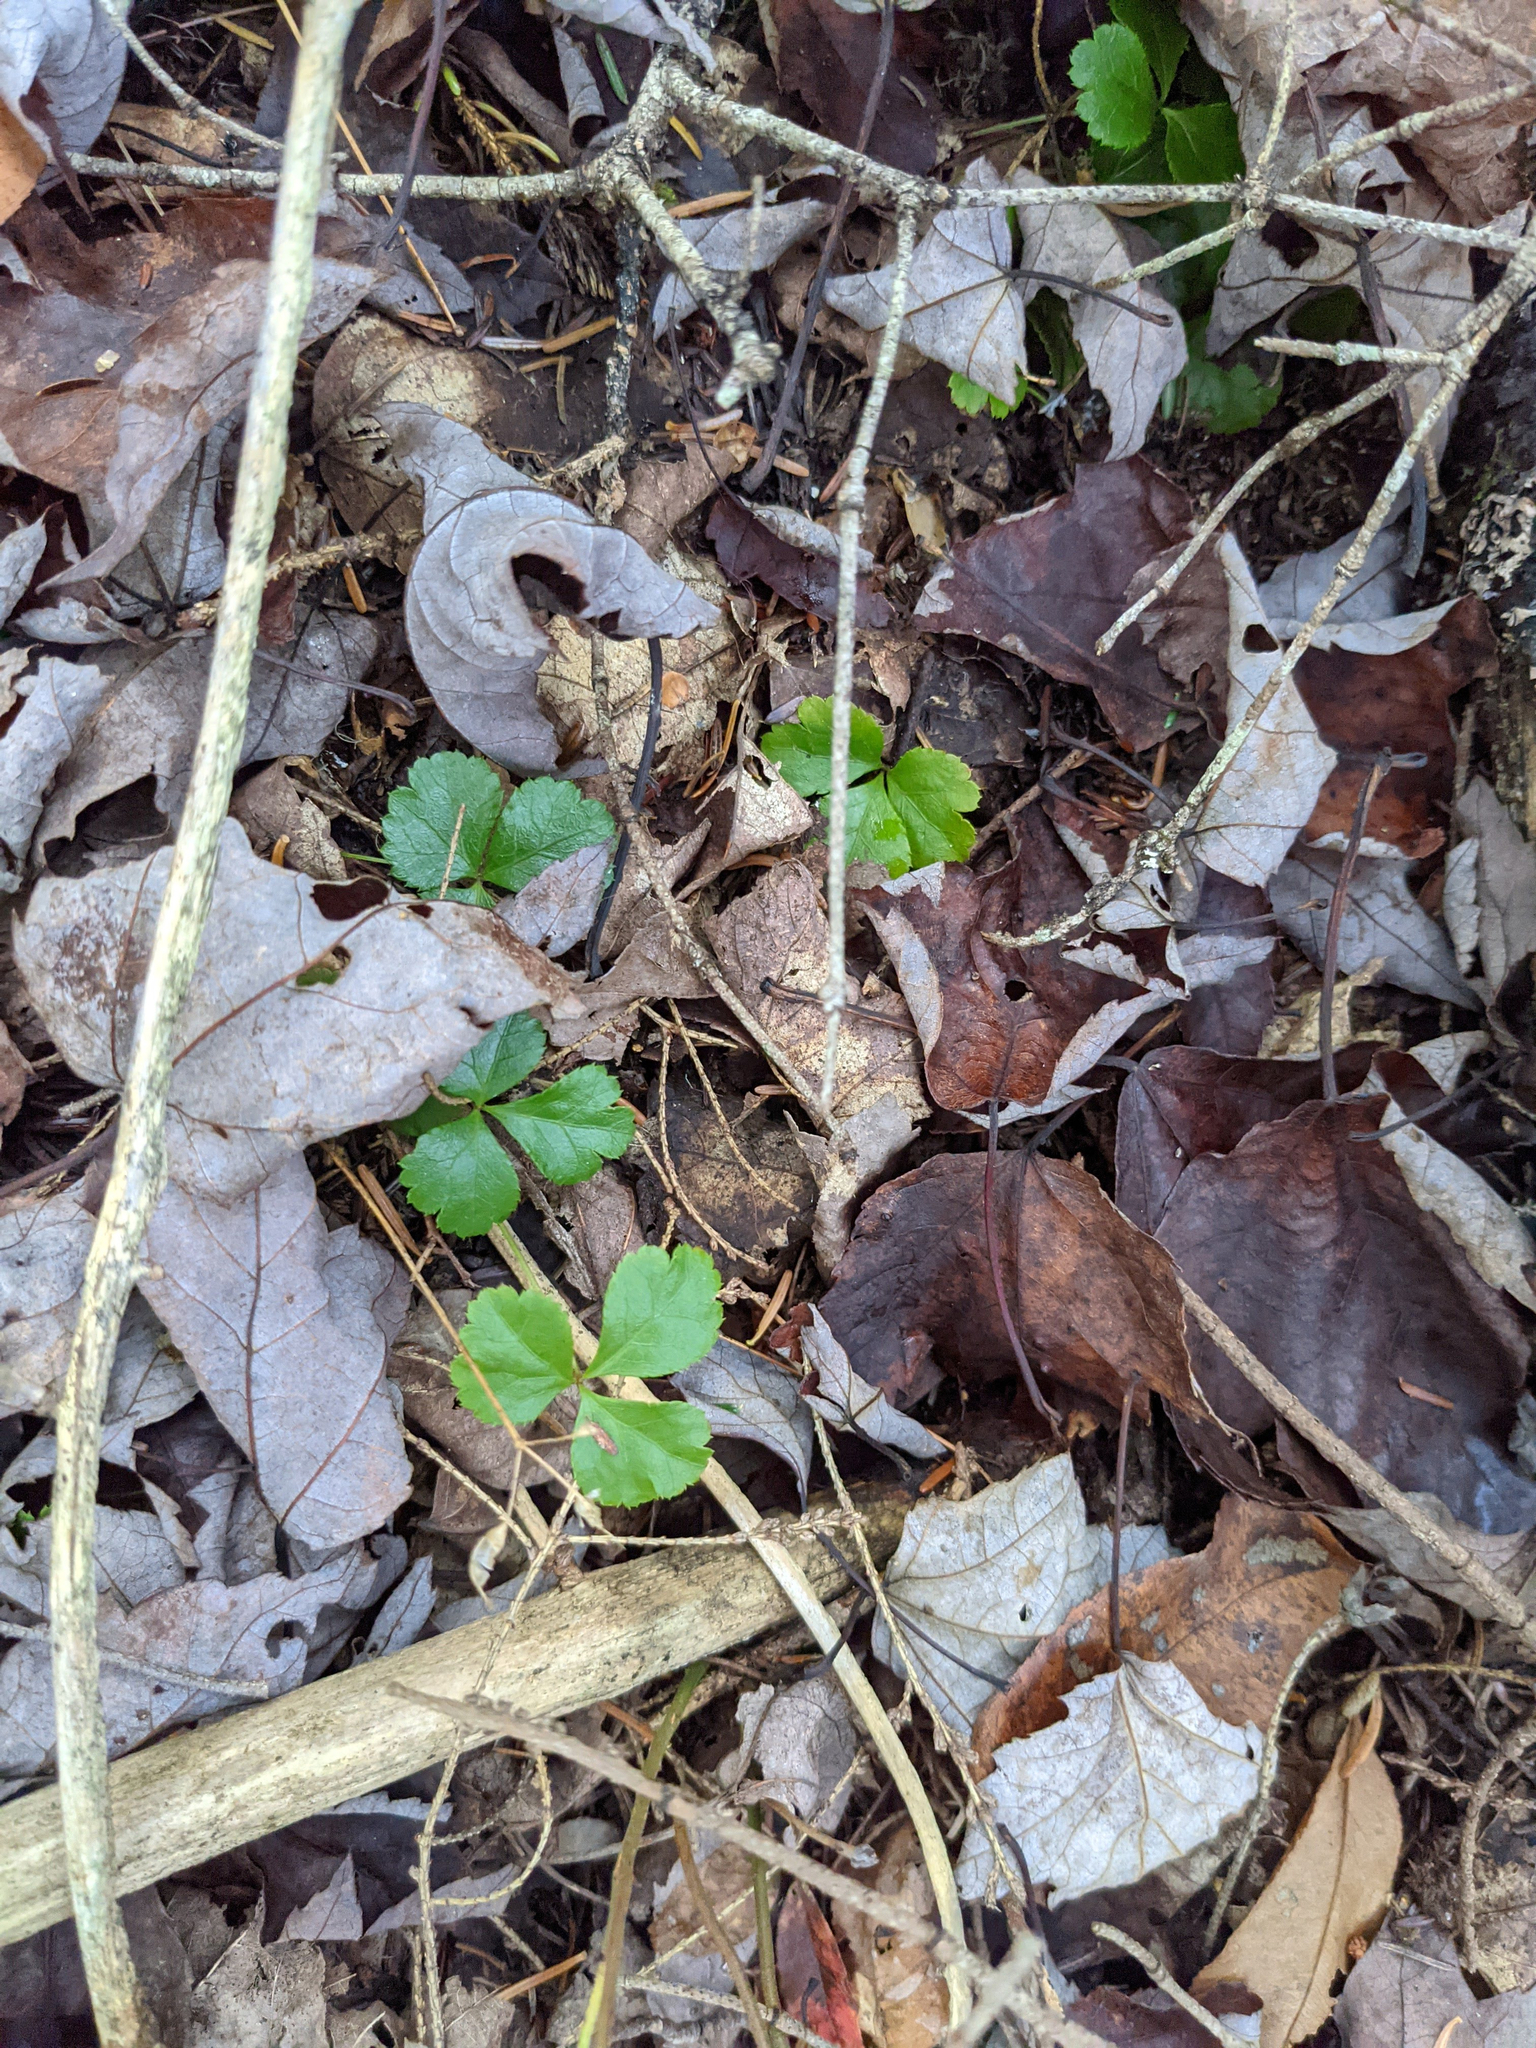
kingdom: Plantae
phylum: Tracheophyta
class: Magnoliopsida
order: Ranunculales
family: Ranunculaceae
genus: Coptis
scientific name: Coptis trifolia
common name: Canker-root
